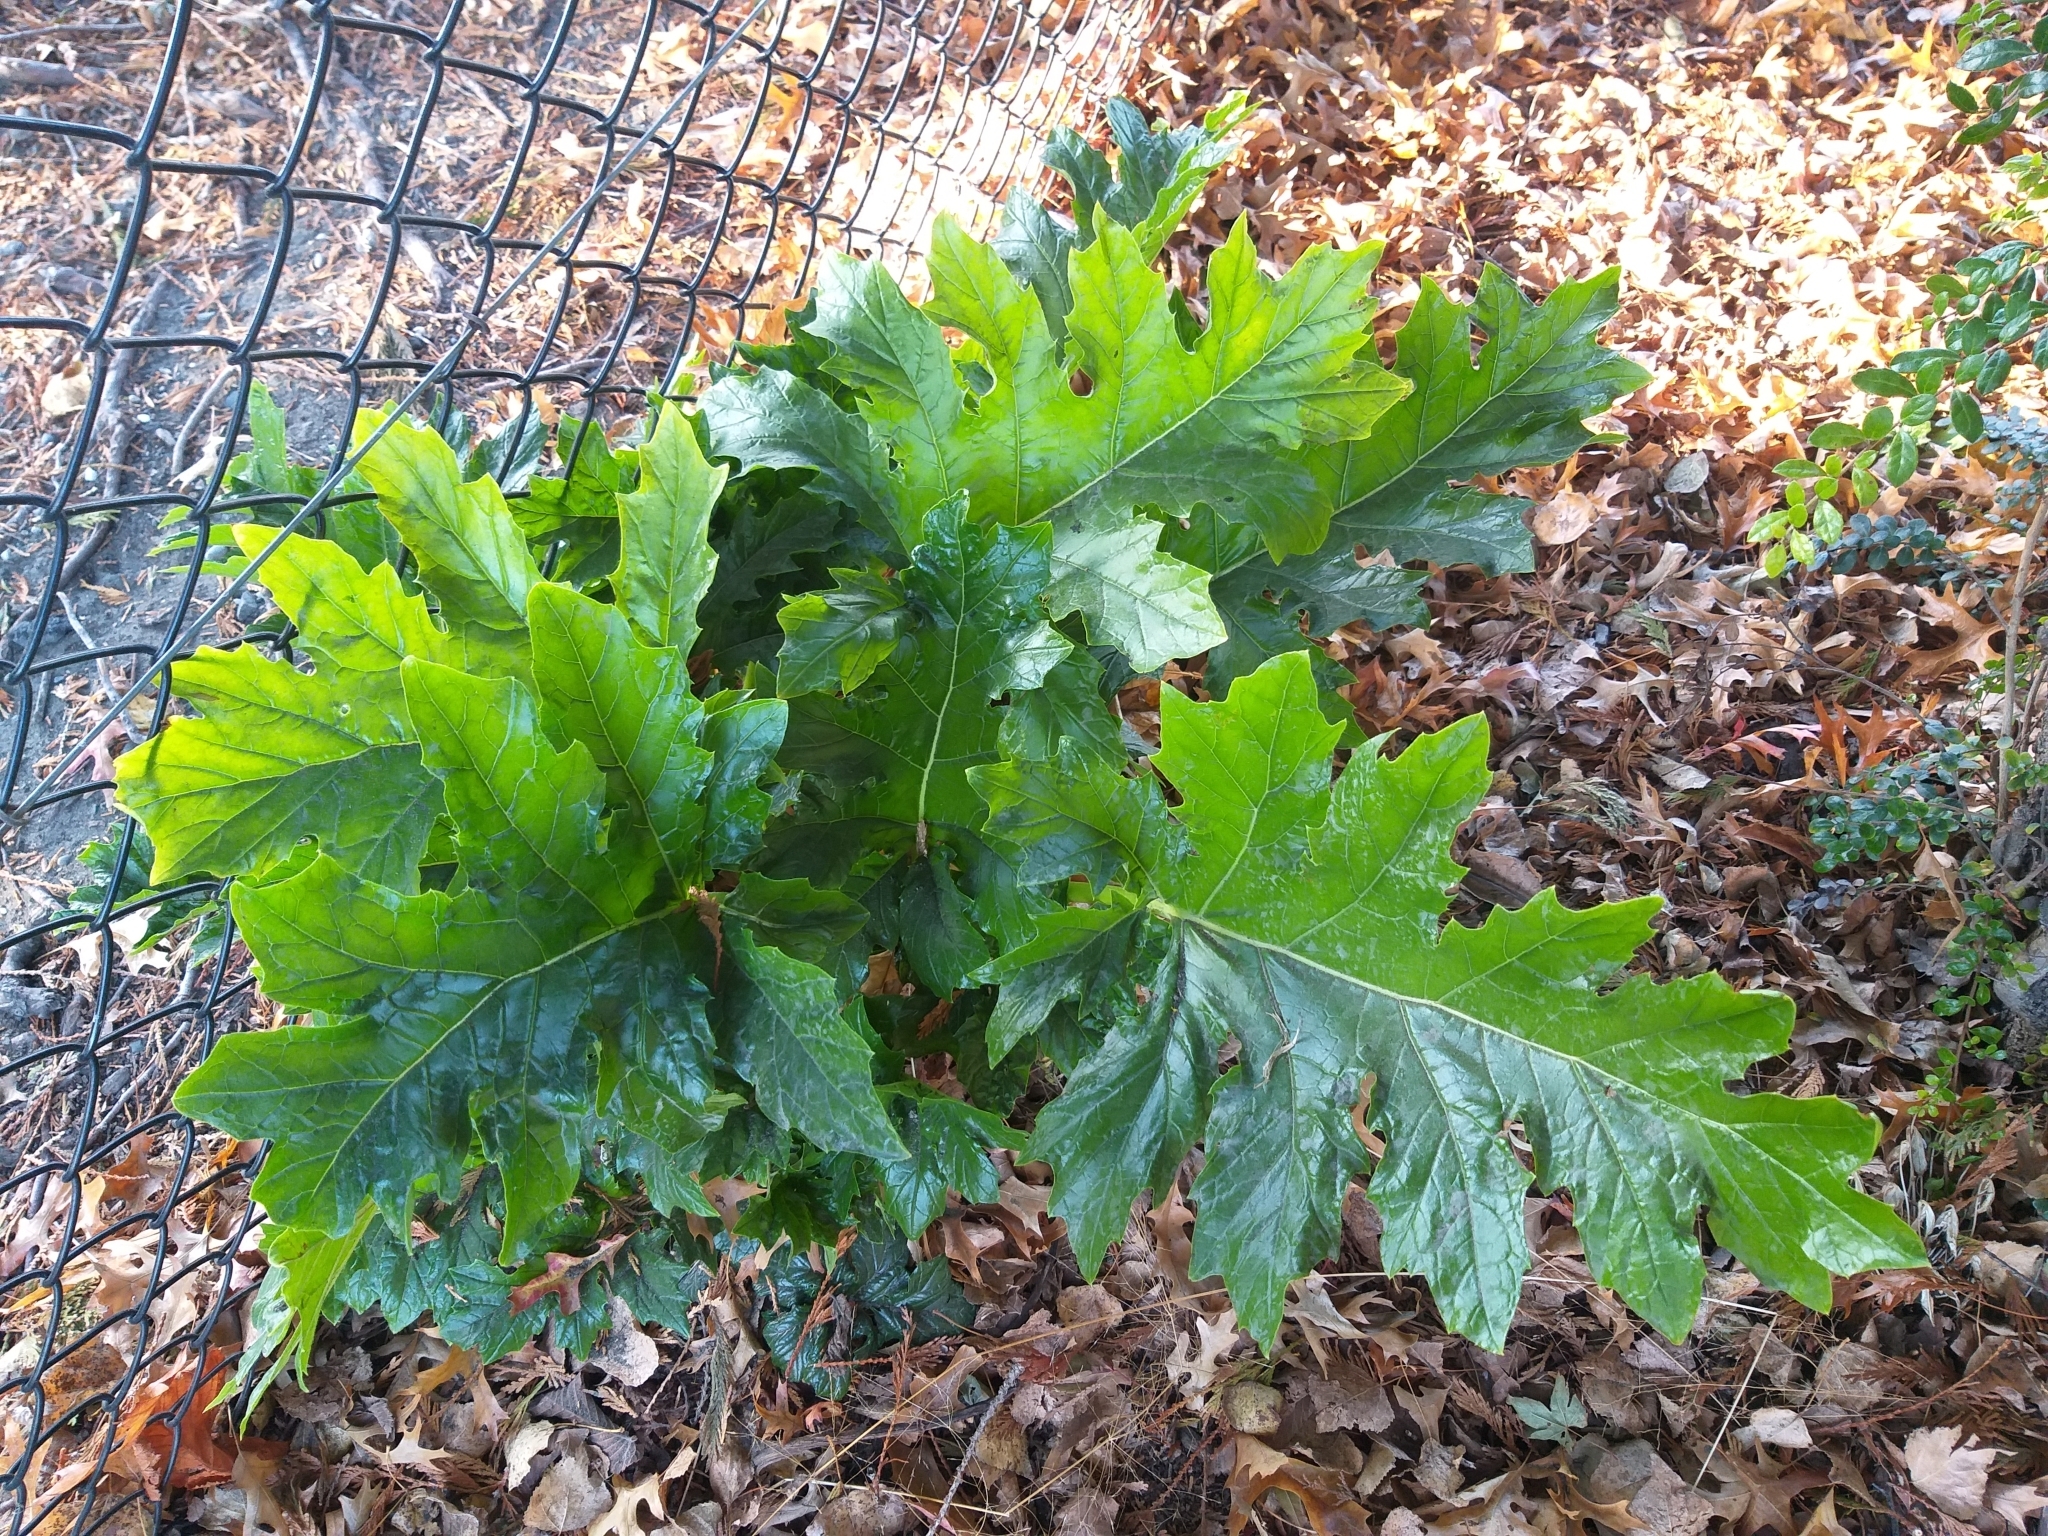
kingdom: Plantae
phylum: Tracheophyta
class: Magnoliopsida
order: Lamiales
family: Acanthaceae
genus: Acanthus
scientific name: Acanthus mollis
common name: Bear's-breech
